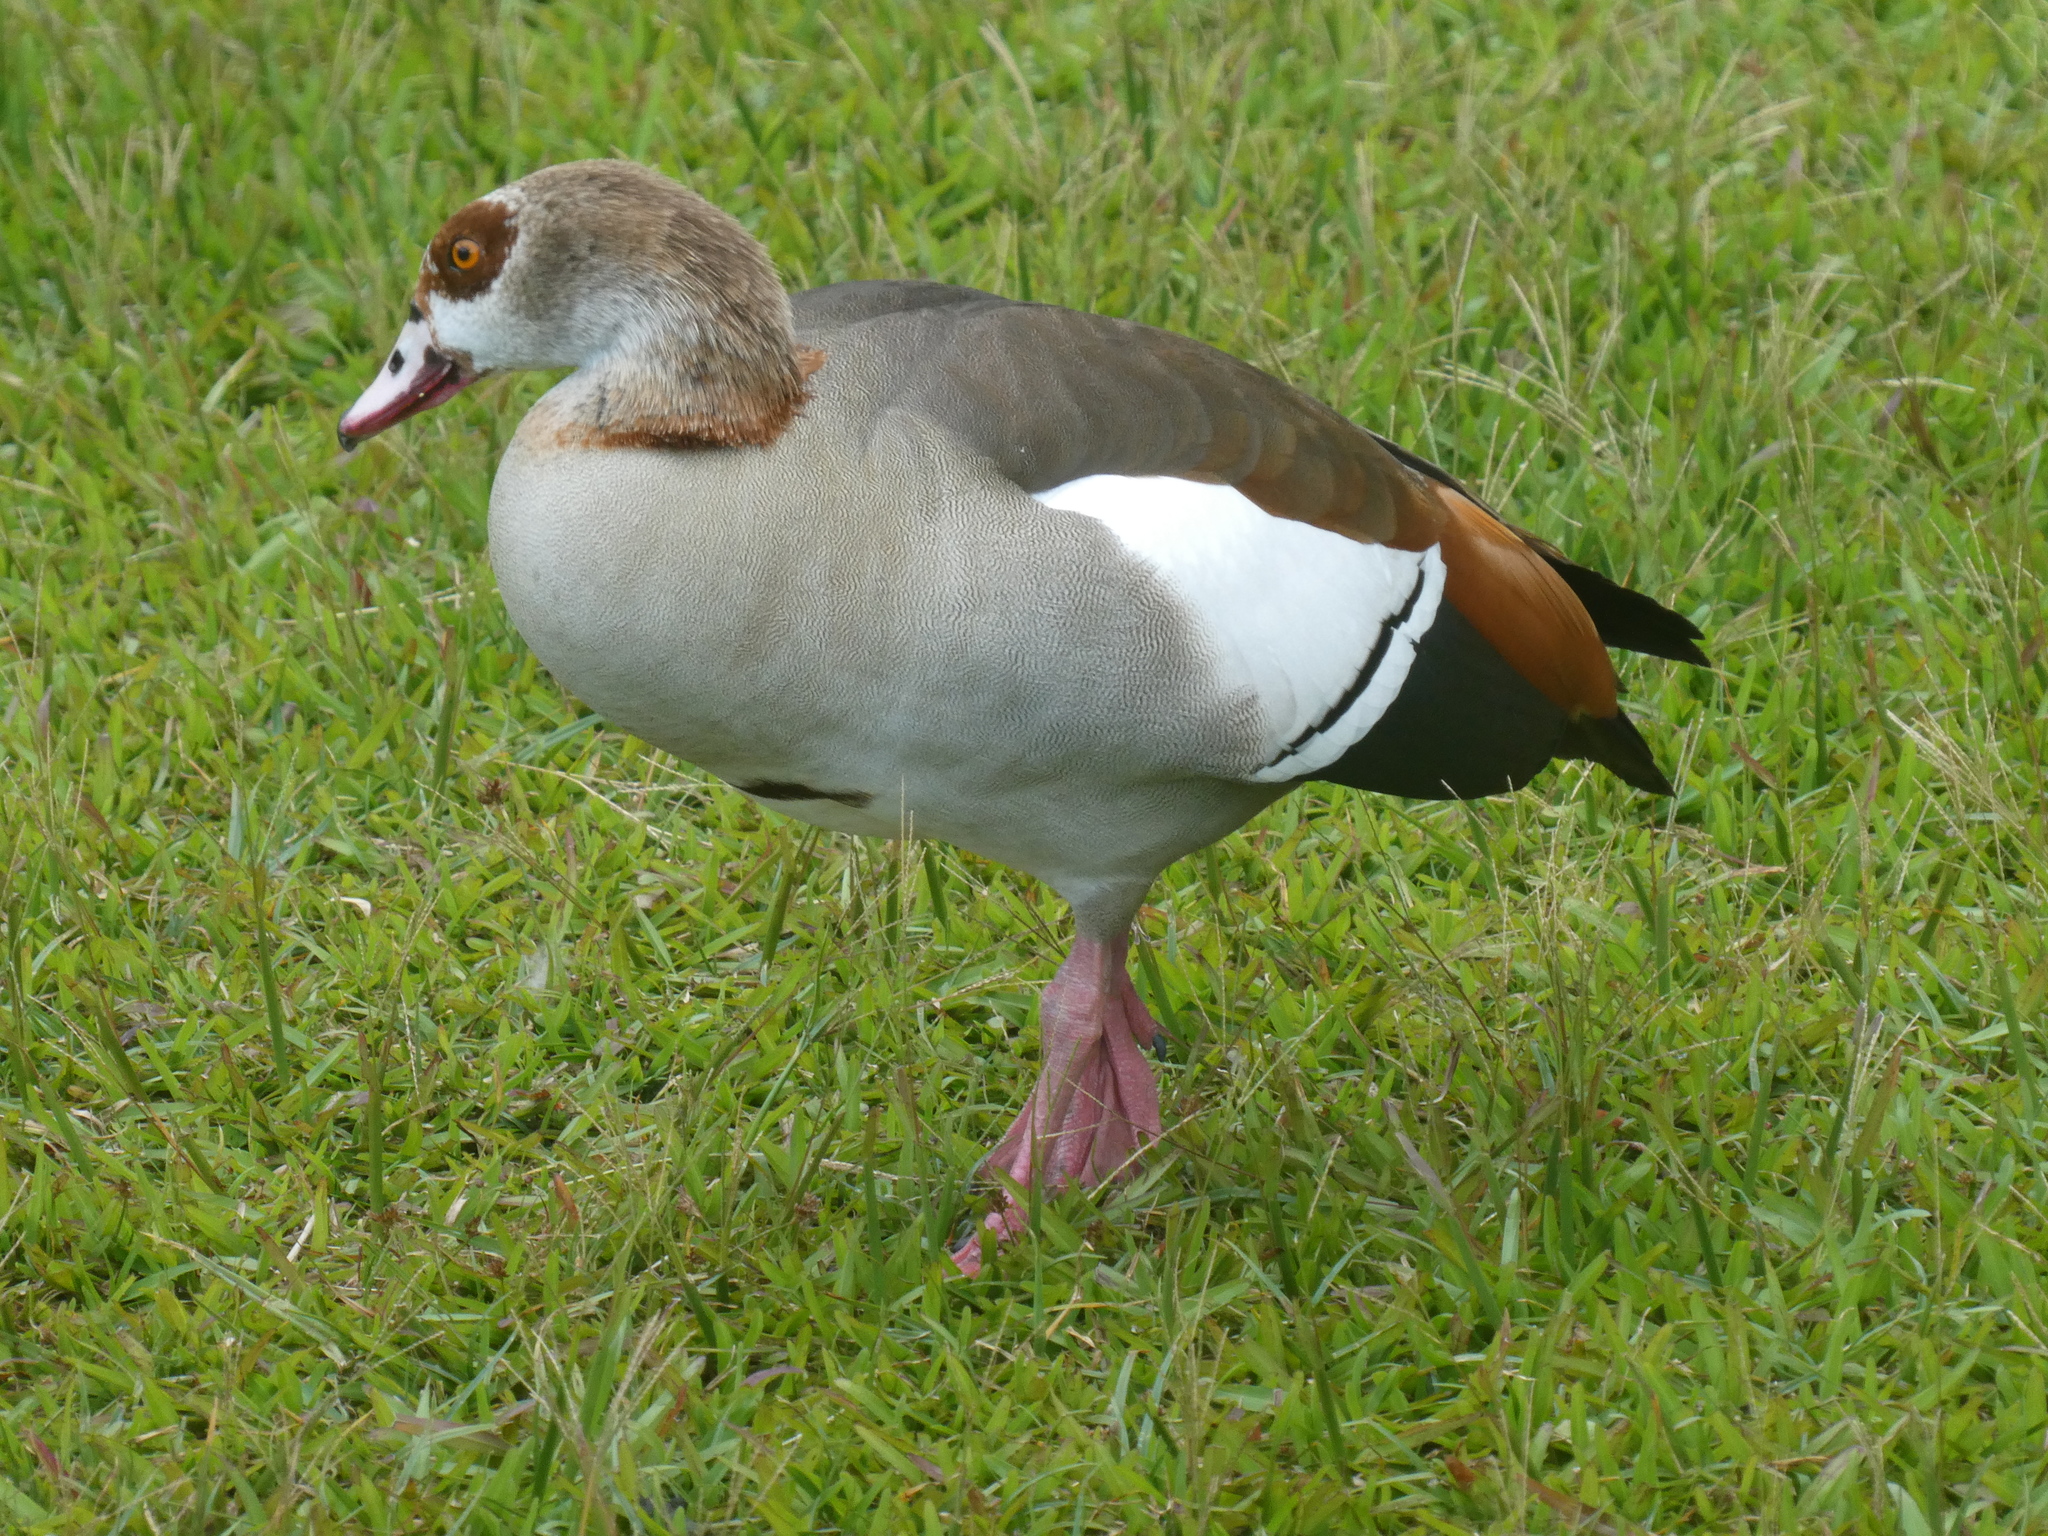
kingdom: Animalia
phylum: Chordata
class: Aves
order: Anseriformes
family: Anatidae
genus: Alopochen
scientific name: Alopochen aegyptiaca
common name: Egyptian goose
